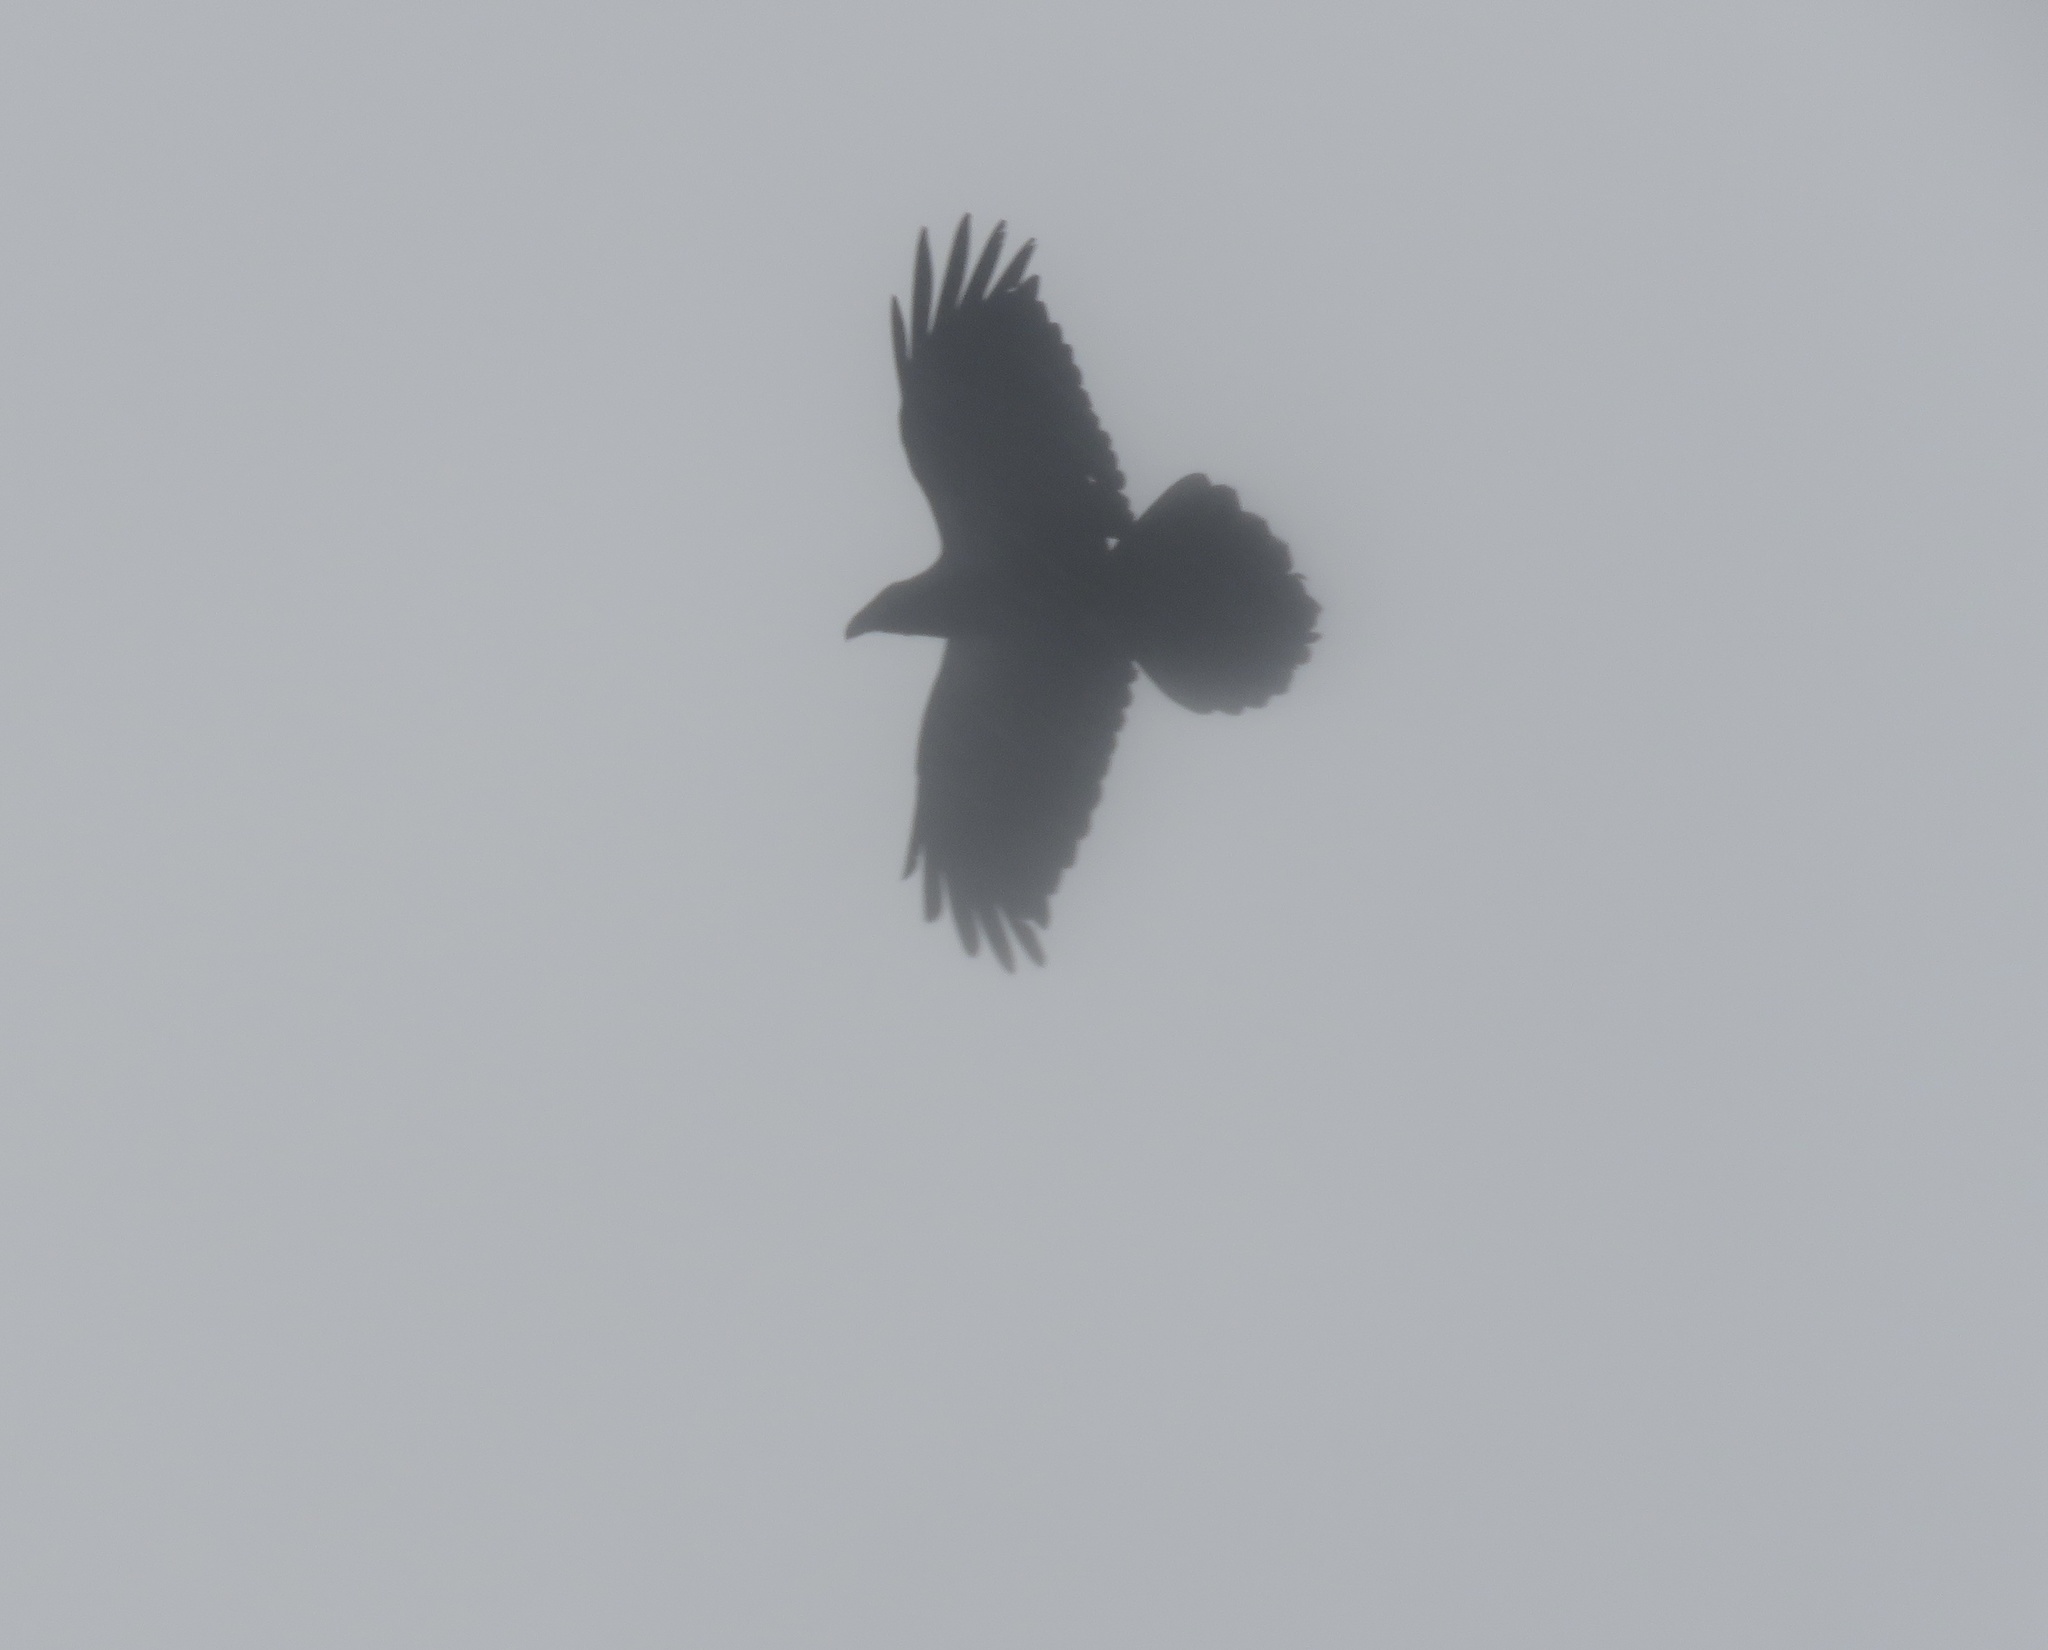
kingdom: Animalia
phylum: Chordata
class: Aves
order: Passeriformes
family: Corvidae
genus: Corvus
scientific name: Corvus corax
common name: Common raven
